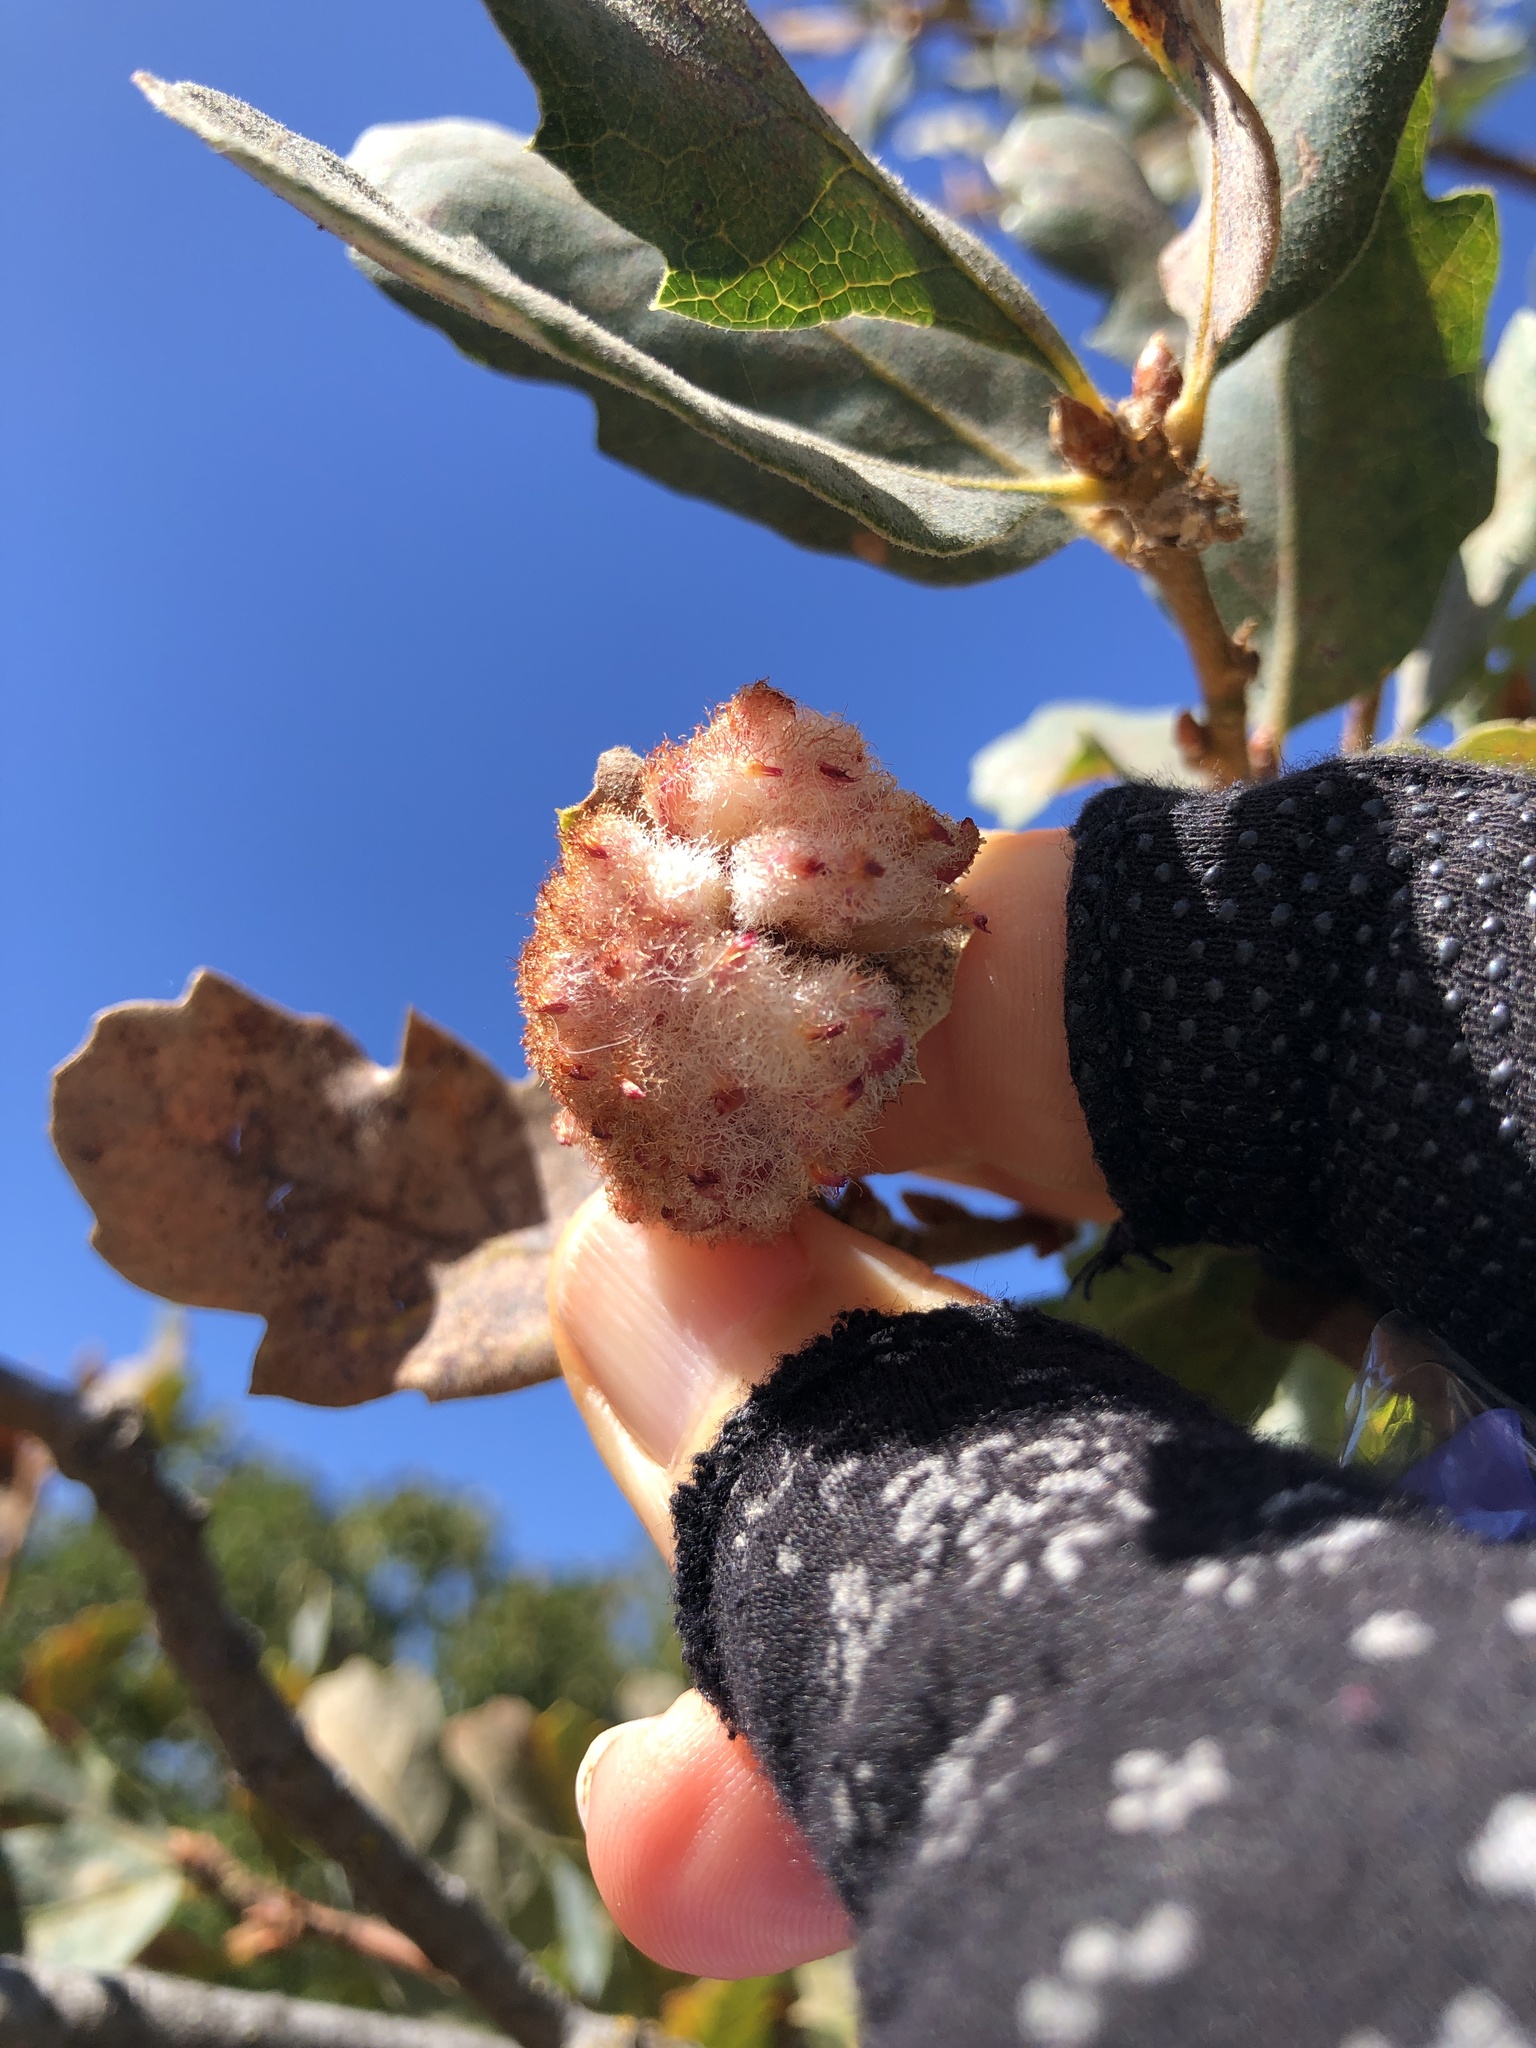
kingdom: Animalia
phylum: Arthropoda
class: Insecta
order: Hymenoptera
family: Cynipidae
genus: Andricus
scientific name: Andricus
